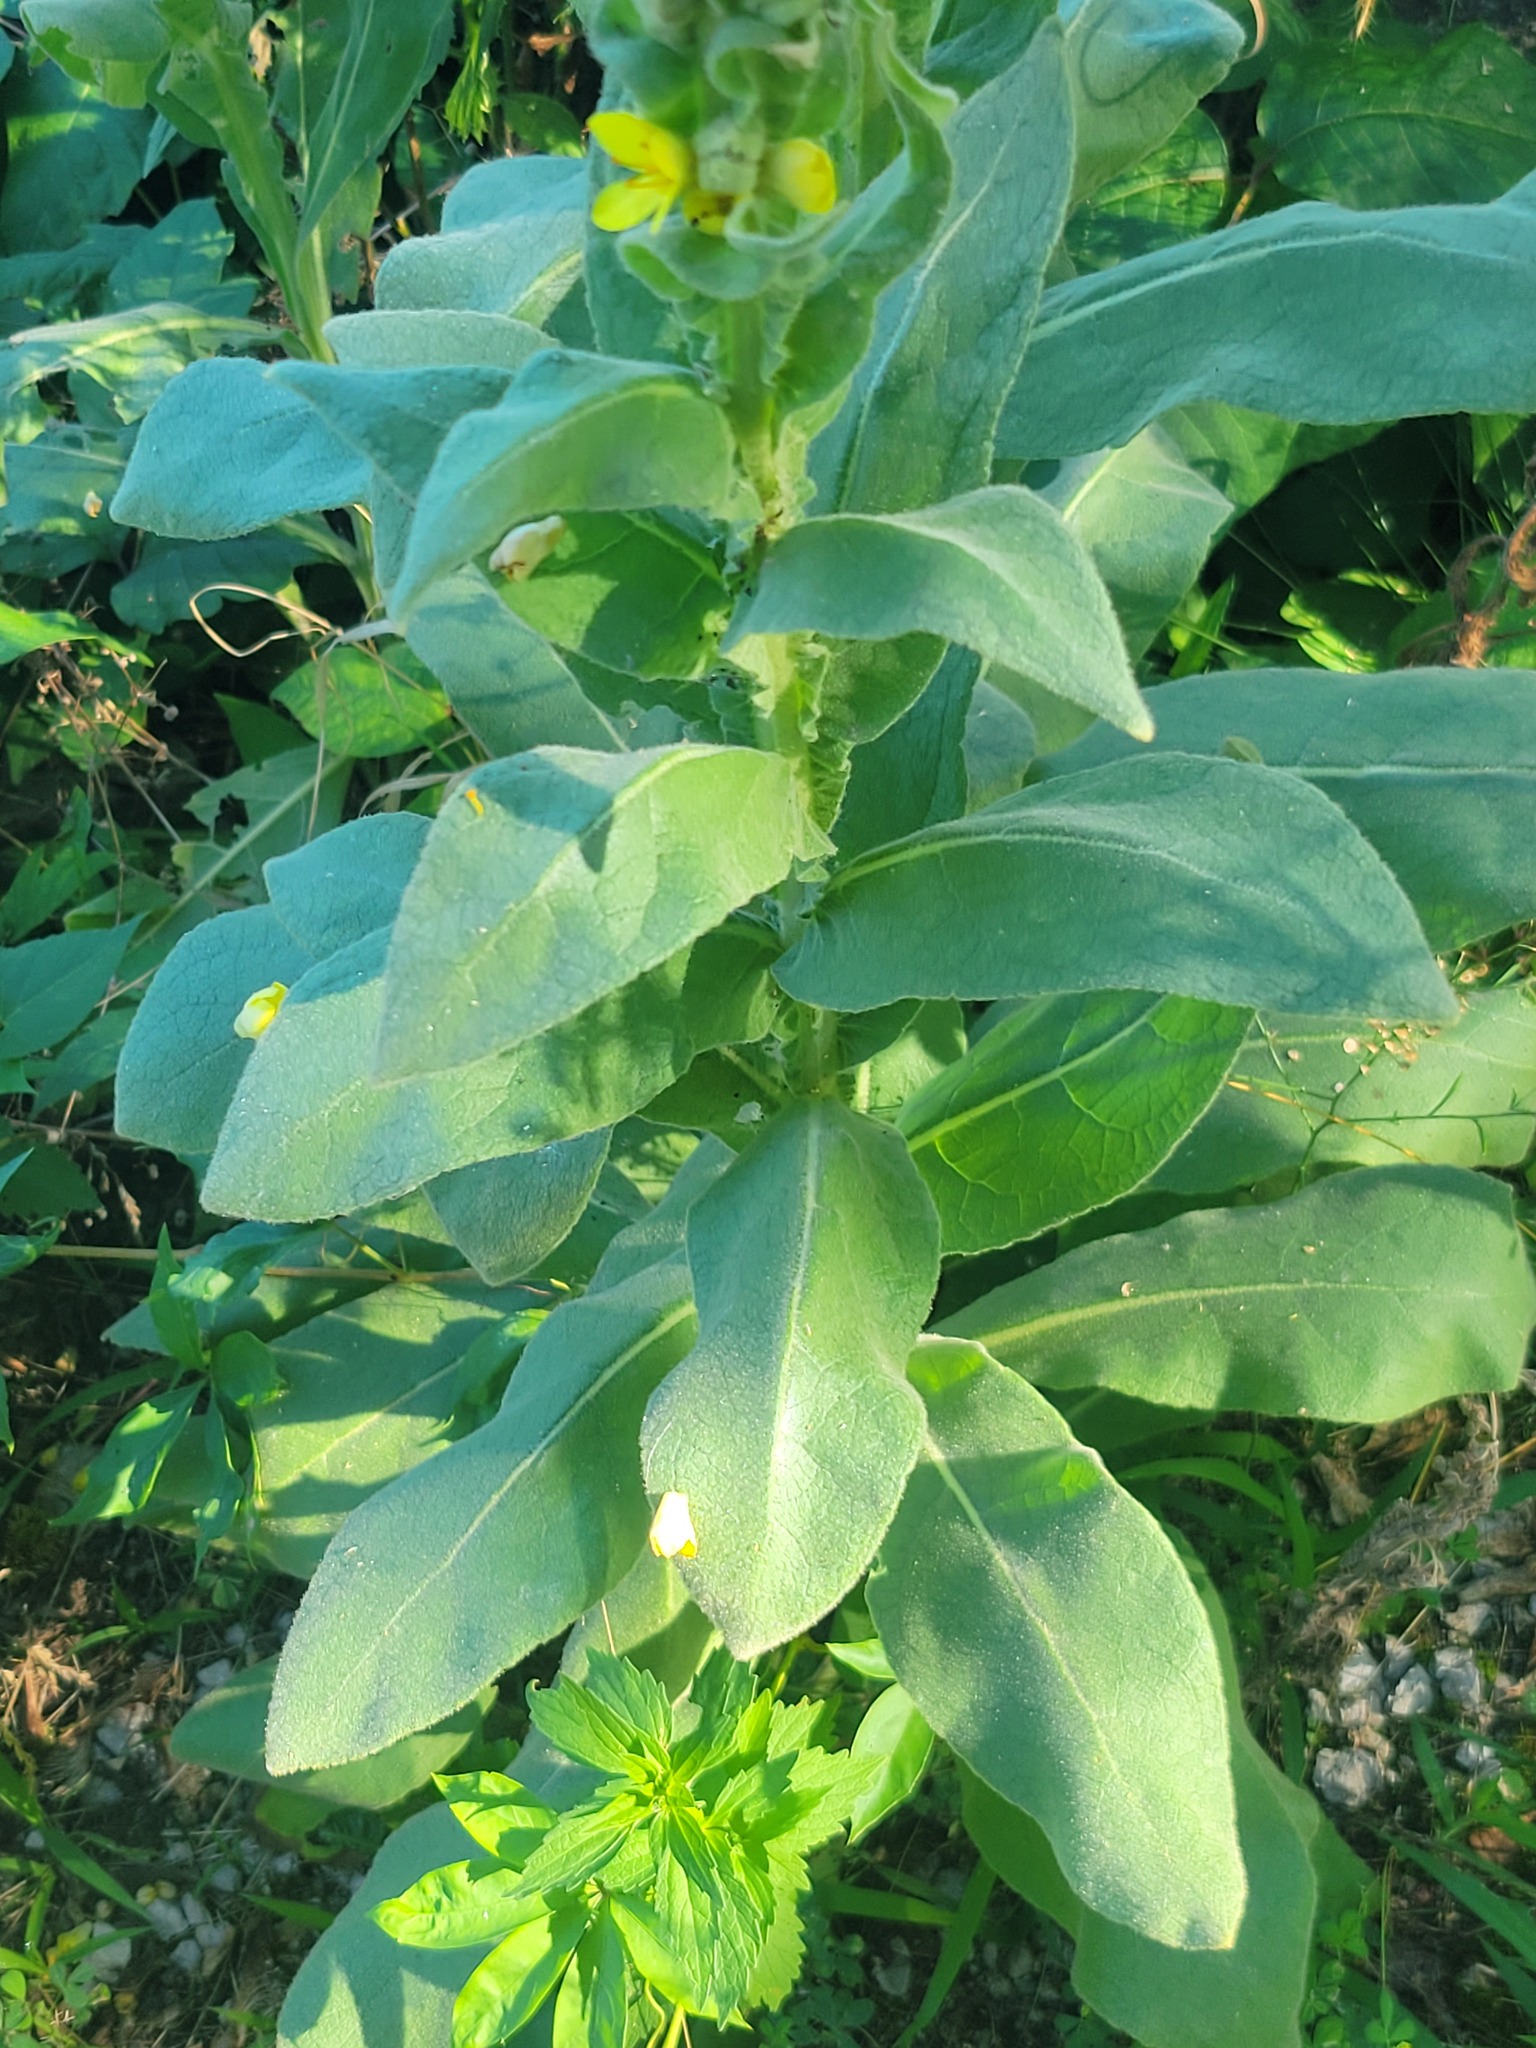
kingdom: Plantae
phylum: Tracheophyta
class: Magnoliopsida
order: Lamiales
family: Scrophulariaceae
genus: Verbascum
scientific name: Verbascum thapsus
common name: Common mullein
